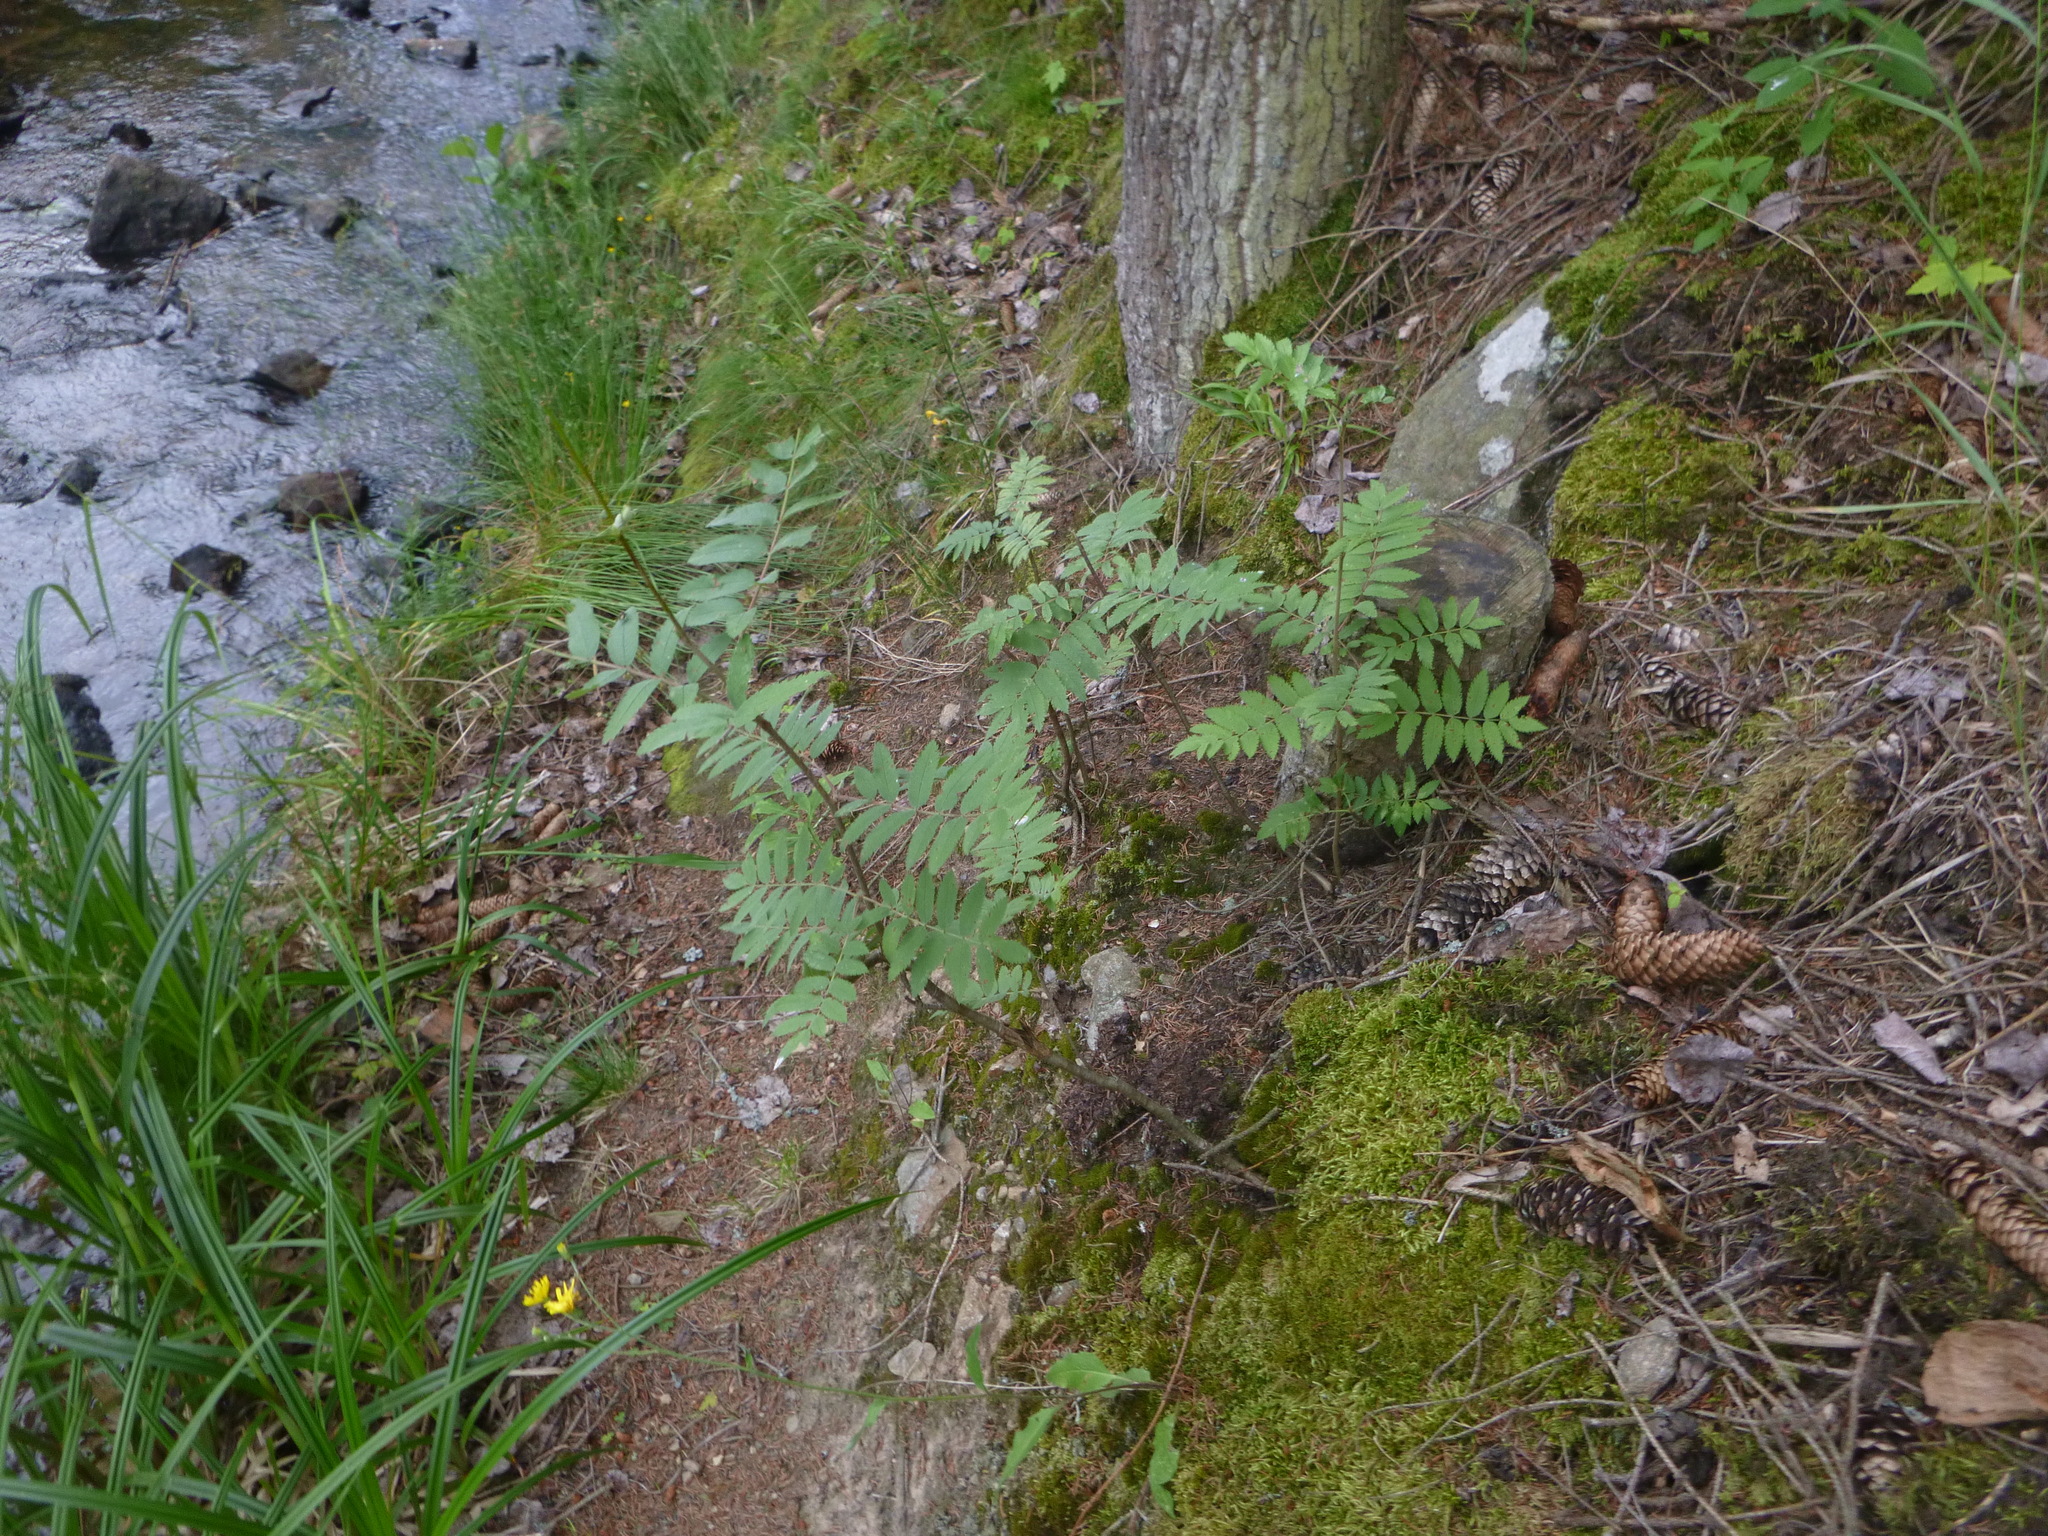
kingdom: Plantae
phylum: Tracheophyta
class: Magnoliopsida
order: Rosales
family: Rosaceae
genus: Sorbus
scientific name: Sorbus aucuparia
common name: Rowan
